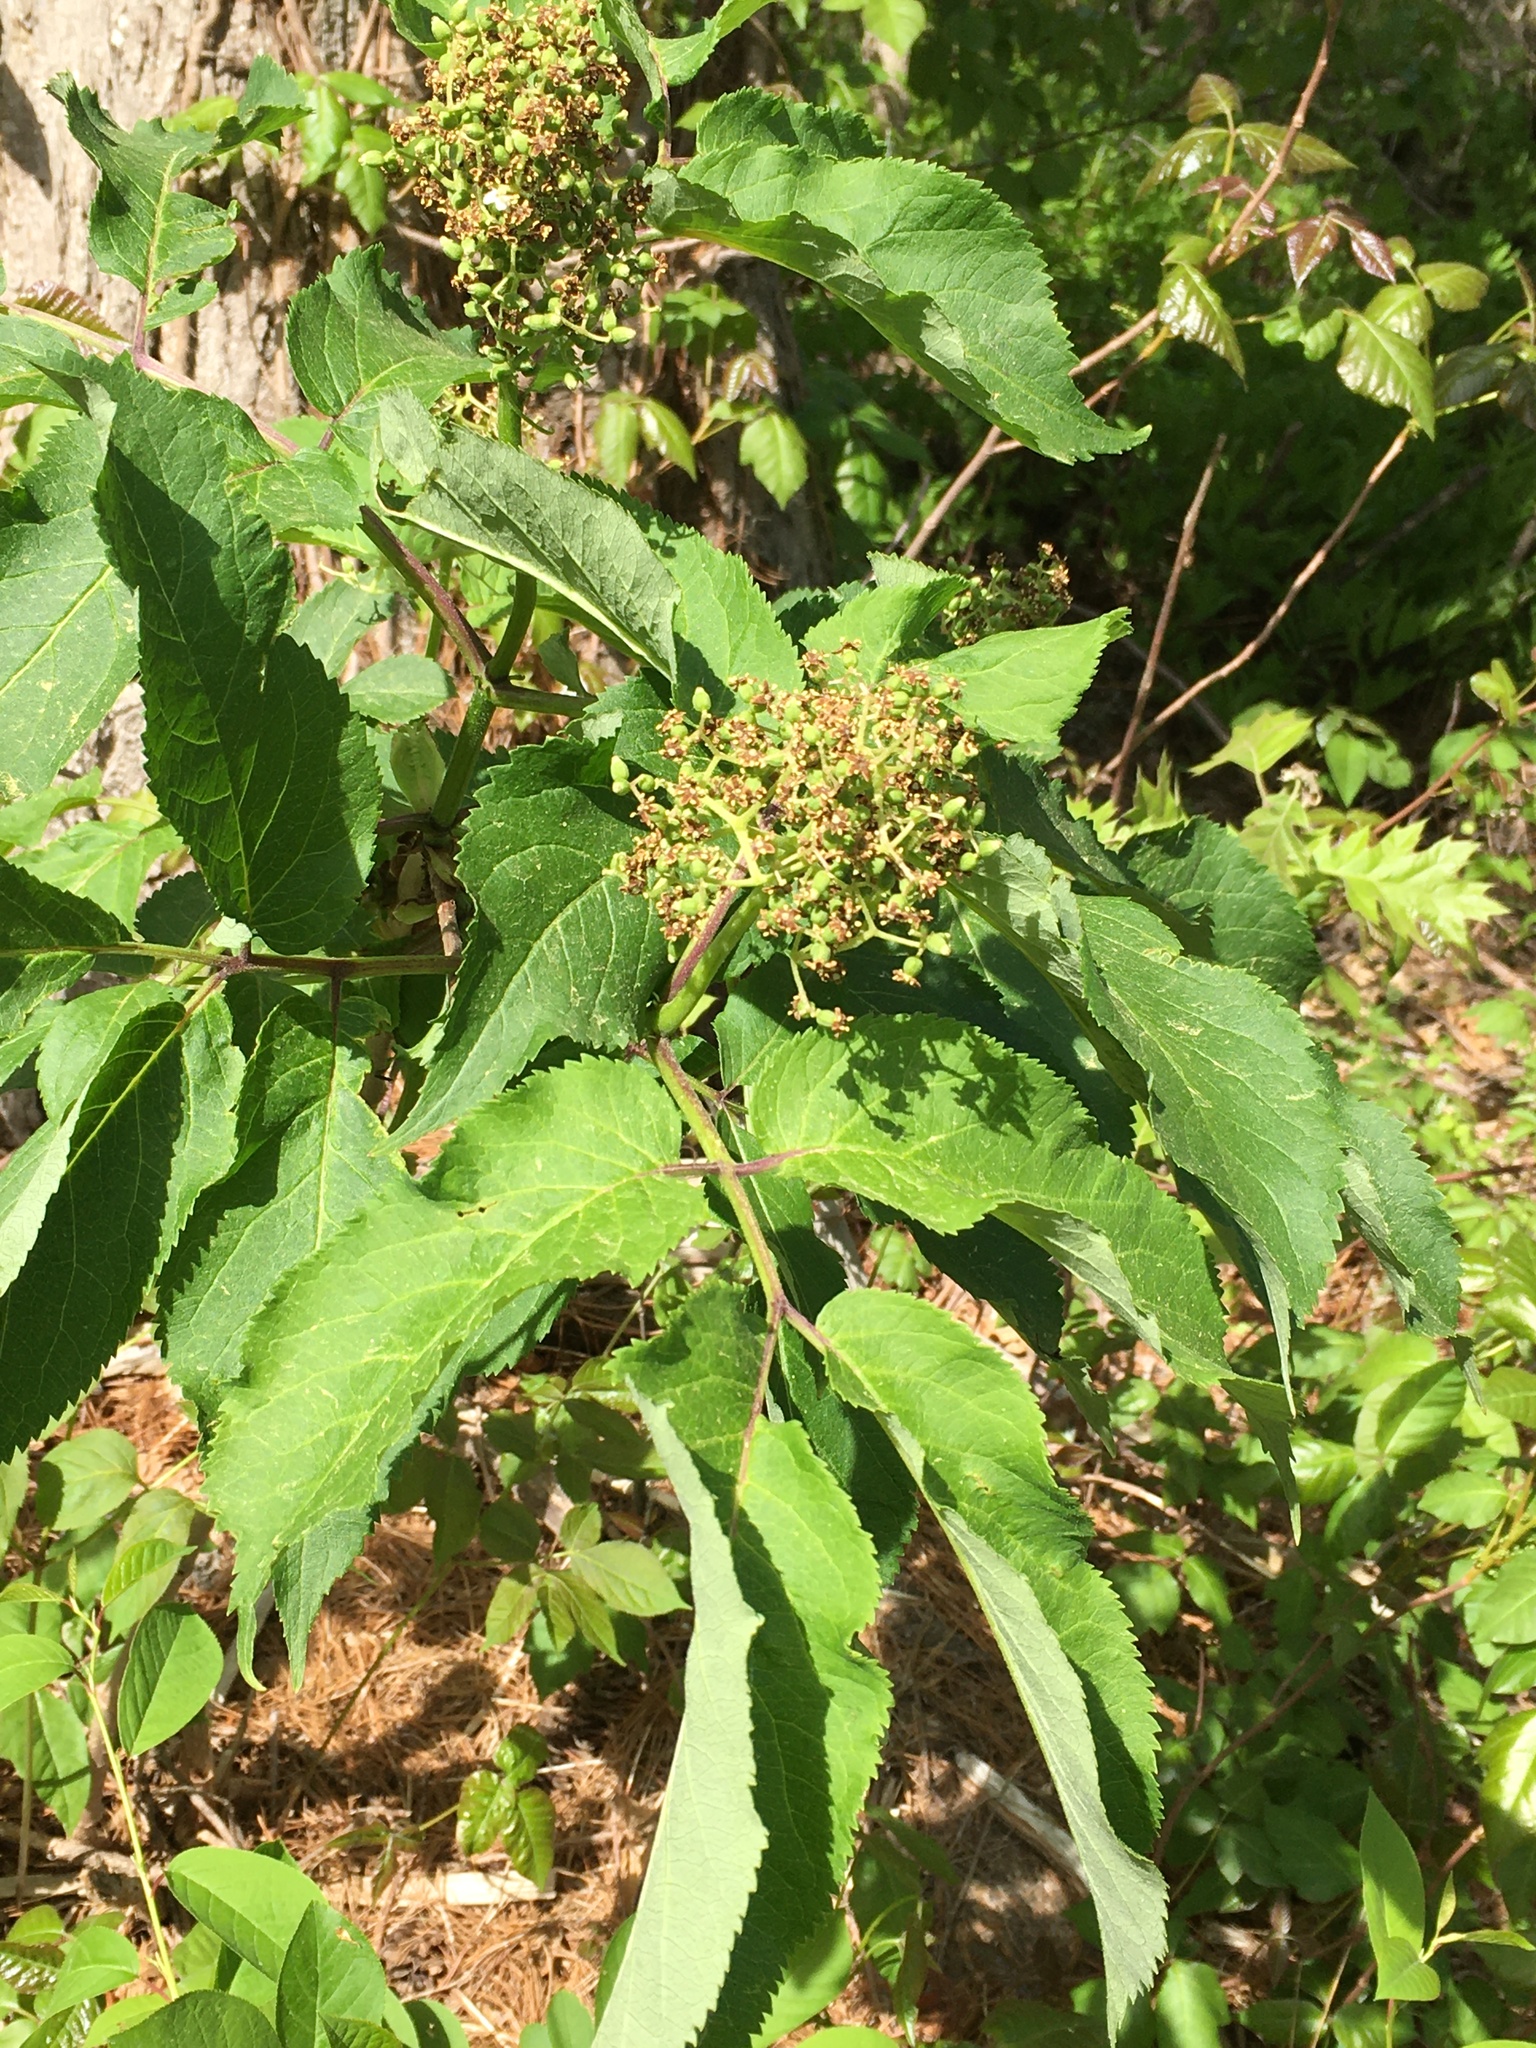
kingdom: Plantae
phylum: Tracheophyta
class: Magnoliopsida
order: Dipsacales
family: Viburnaceae
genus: Sambucus
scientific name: Sambucus racemosa
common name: Red-berried elder
